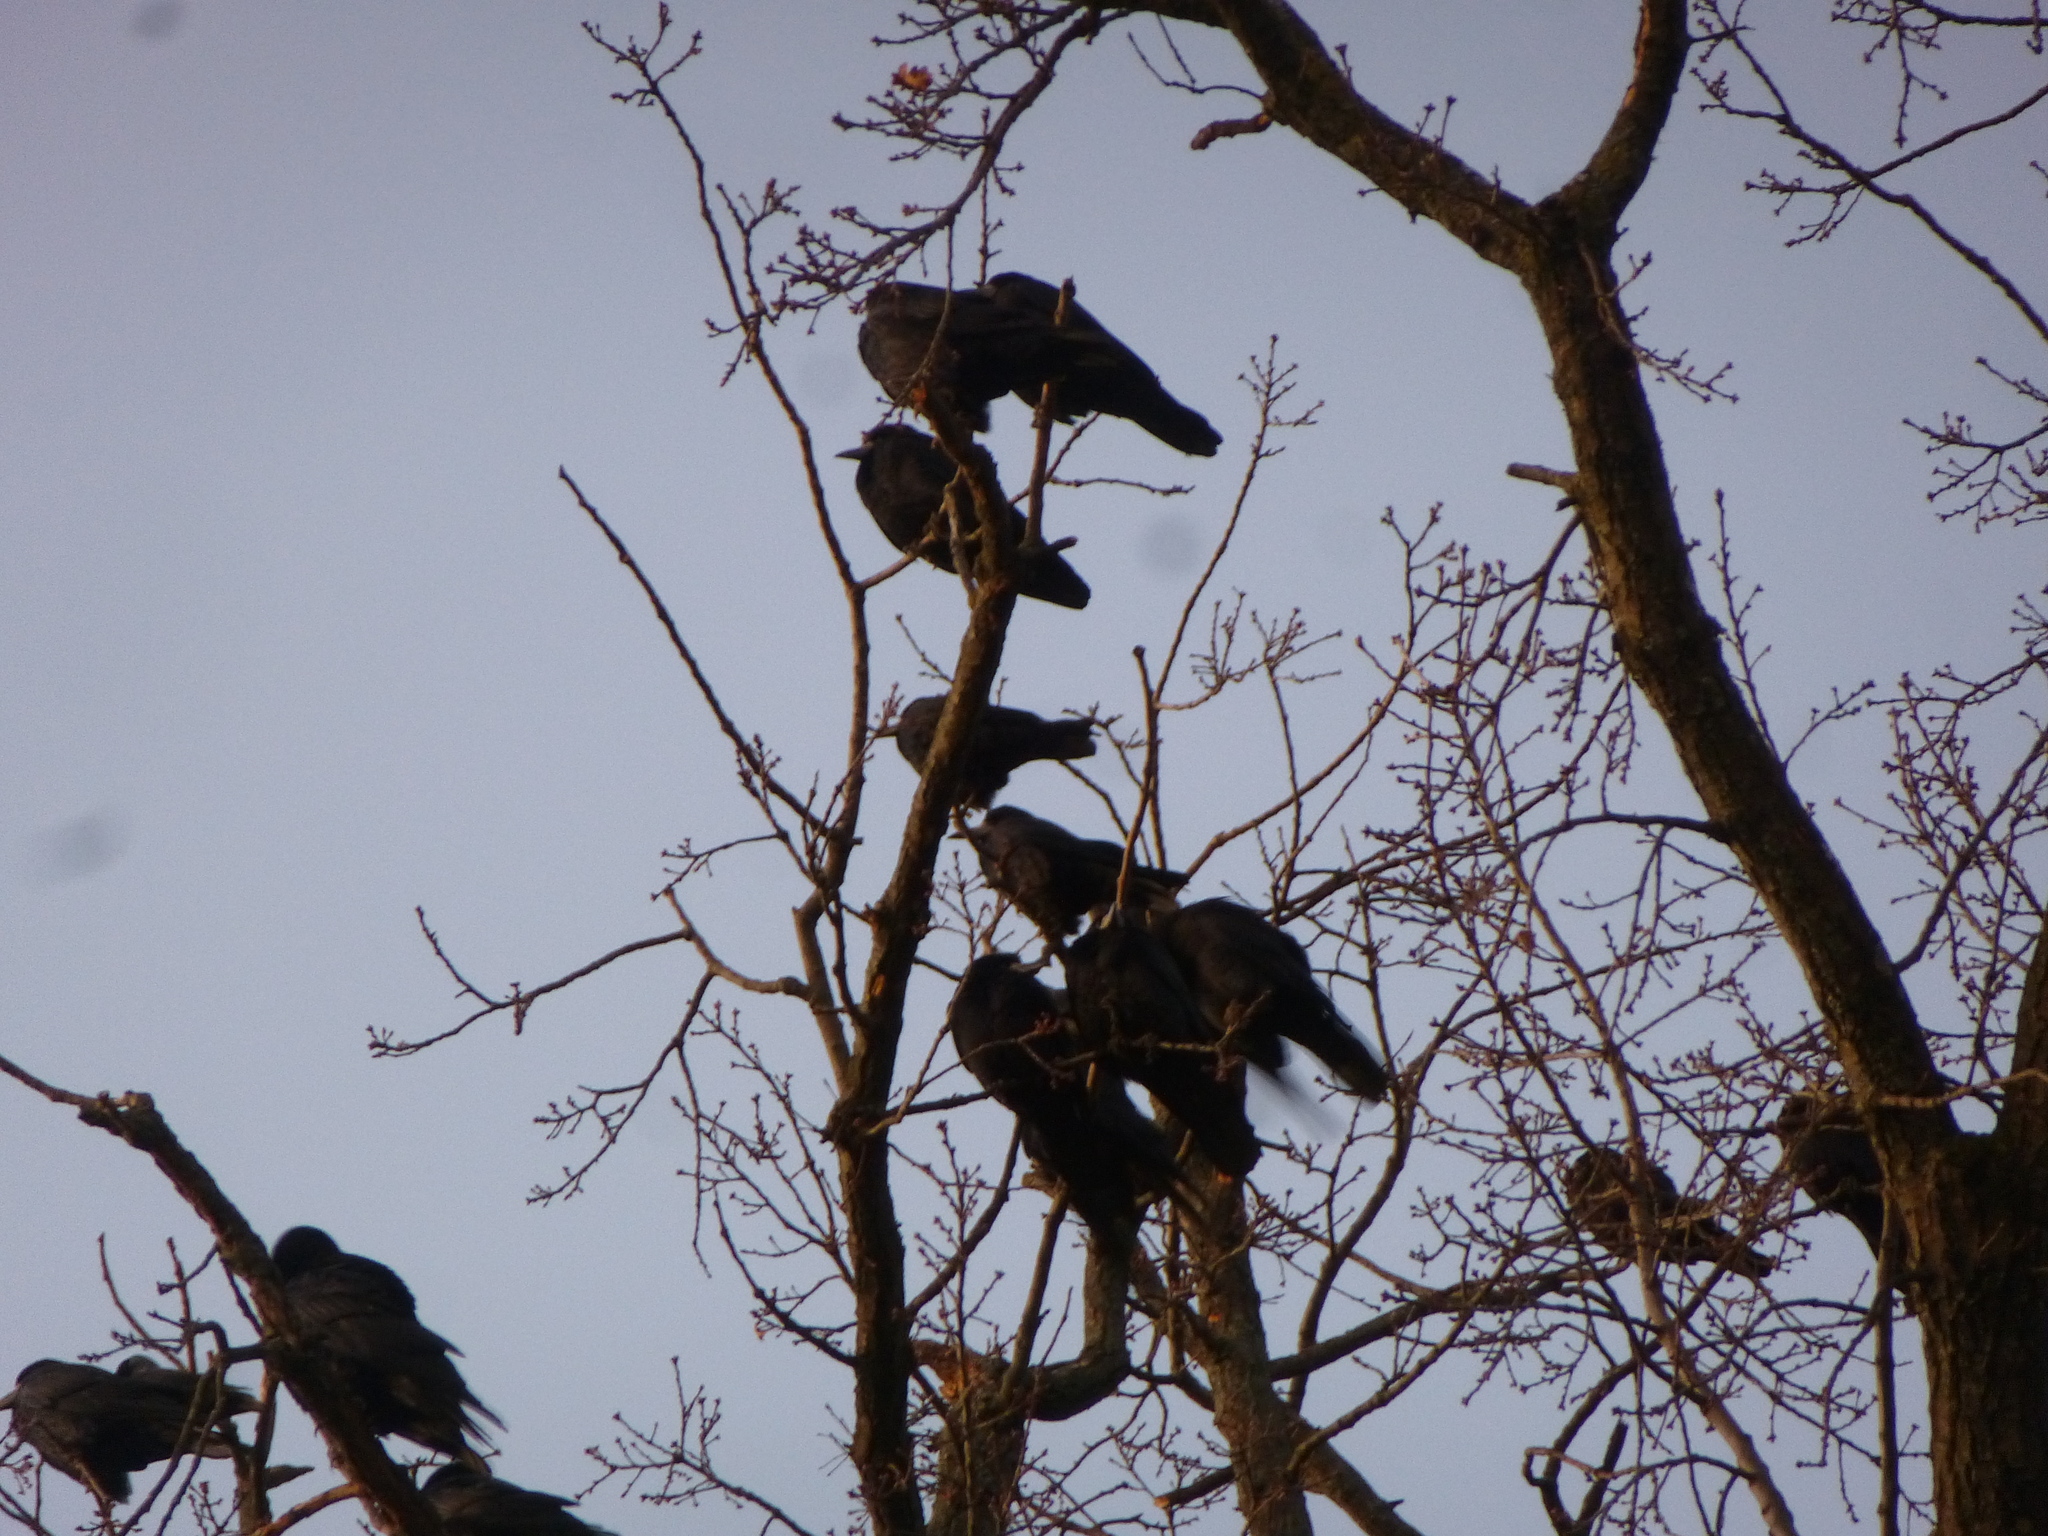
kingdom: Animalia
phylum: Chordata
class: Aves
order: Passeriformes
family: Corvidae
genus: Corvus
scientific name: Corvus frugilegus
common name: Rook
